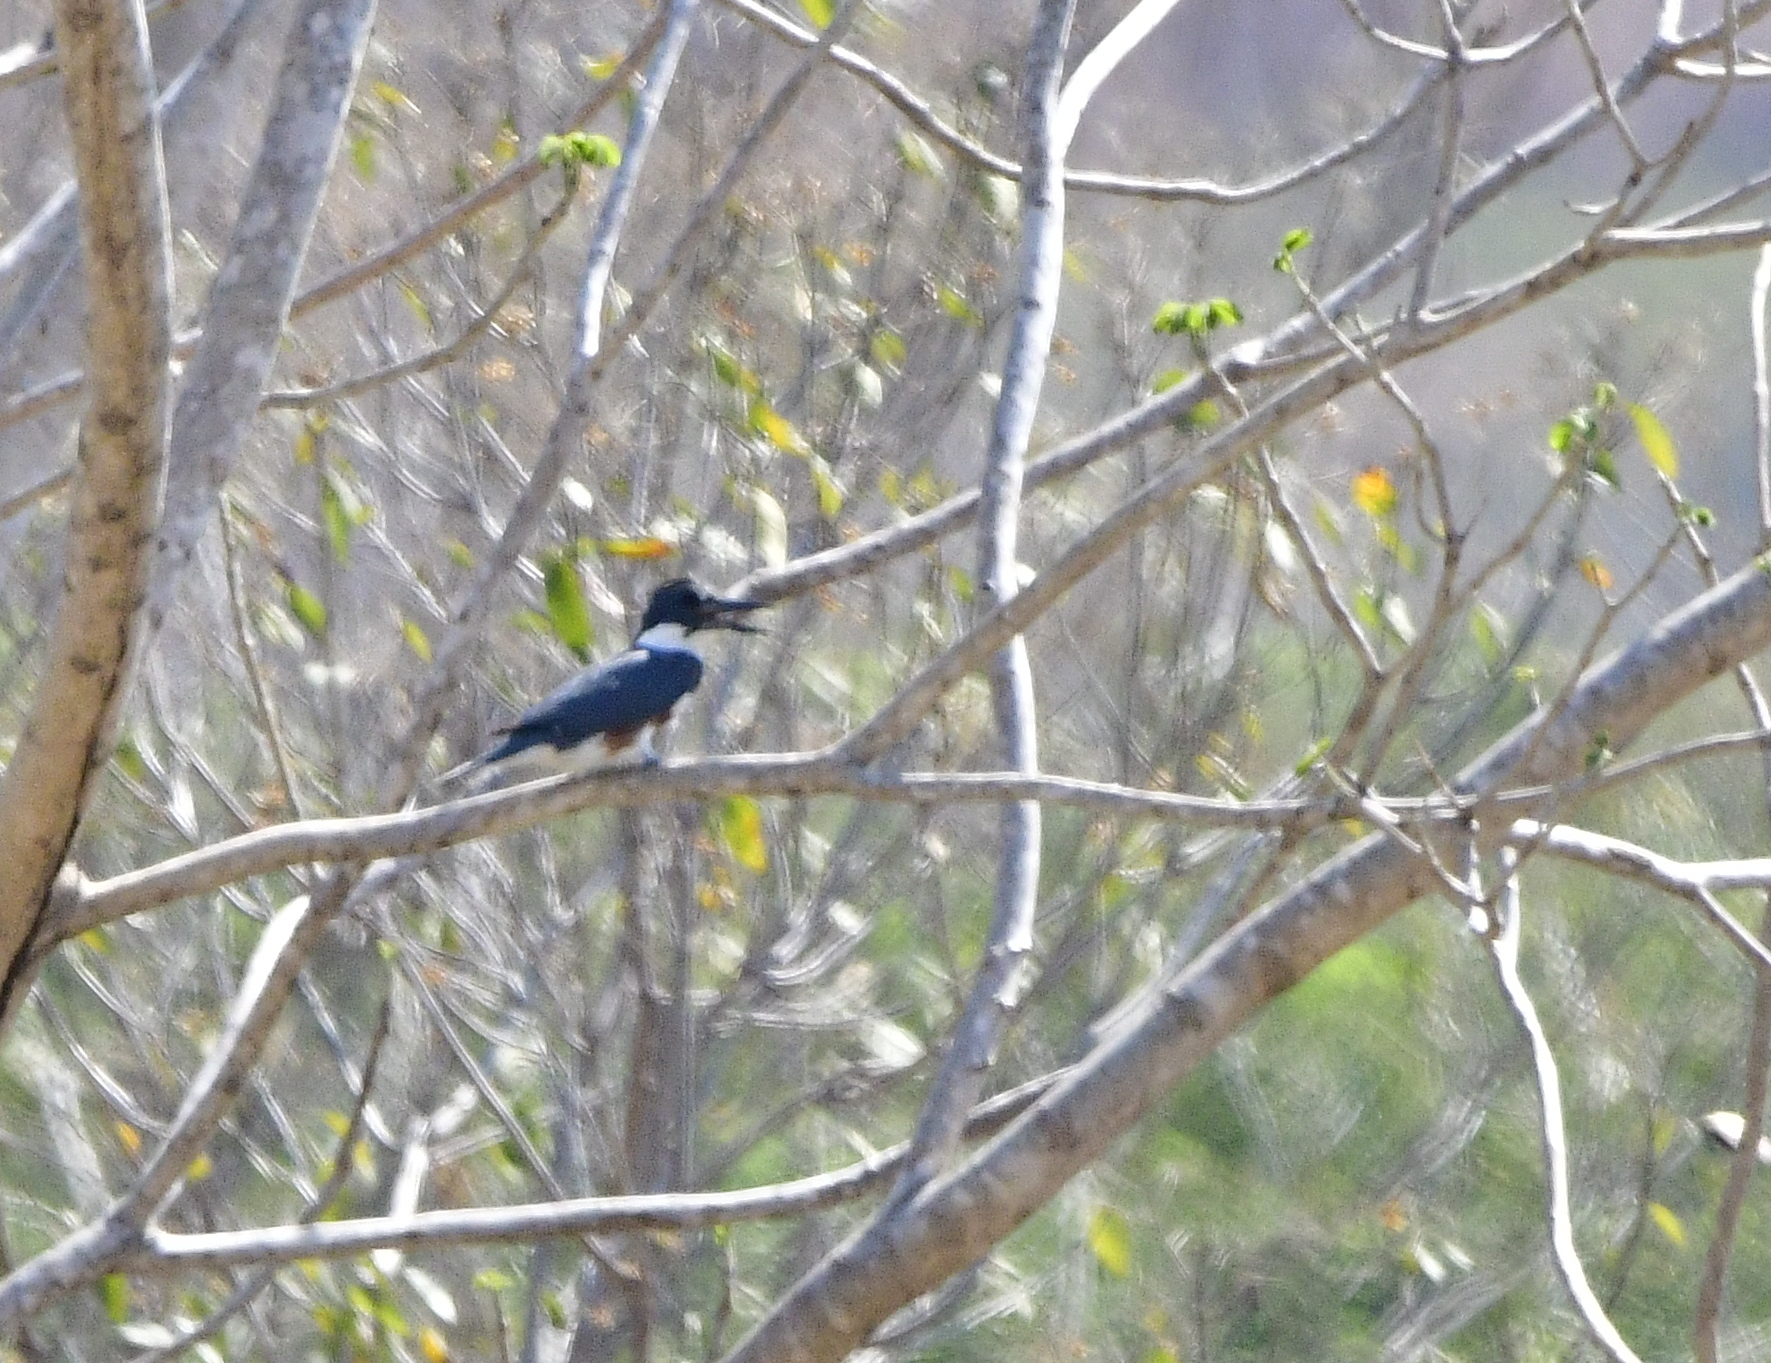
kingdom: Animalia
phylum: Chordata
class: Aves
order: Coraciiformes
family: Alcedinidae
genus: Megaceryle
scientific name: Megaceryle alcyon
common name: Belted kingfisher
